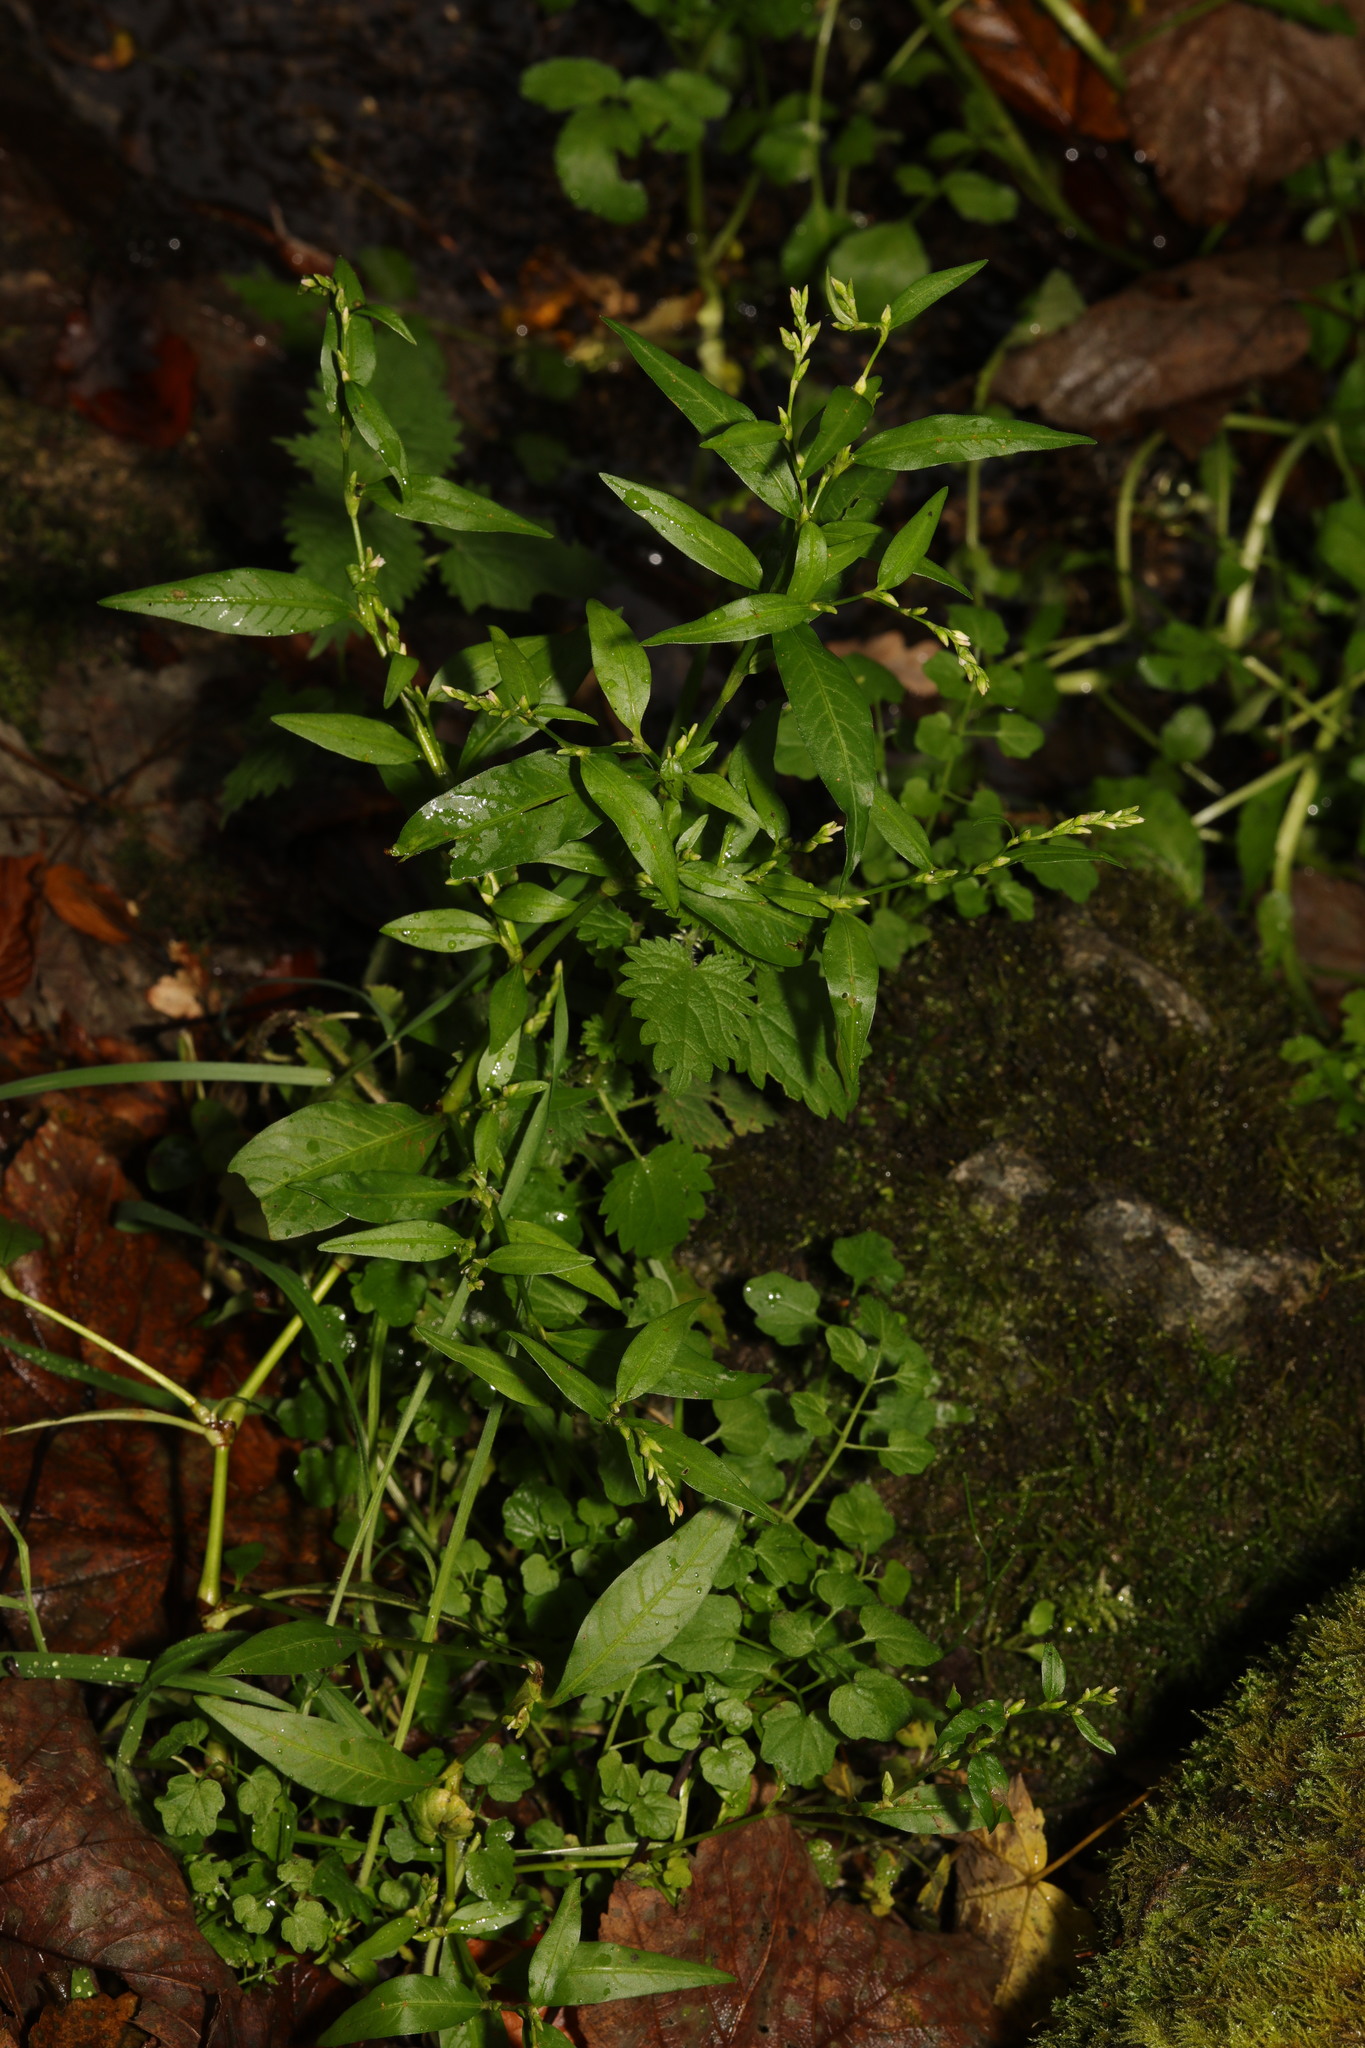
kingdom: Plantae
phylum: Tracheophyta
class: Magnoliopsida
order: Caryophyllales
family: Polygonaceae
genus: Persicaria
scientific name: Persicaria hydropiper
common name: Water-pepper
